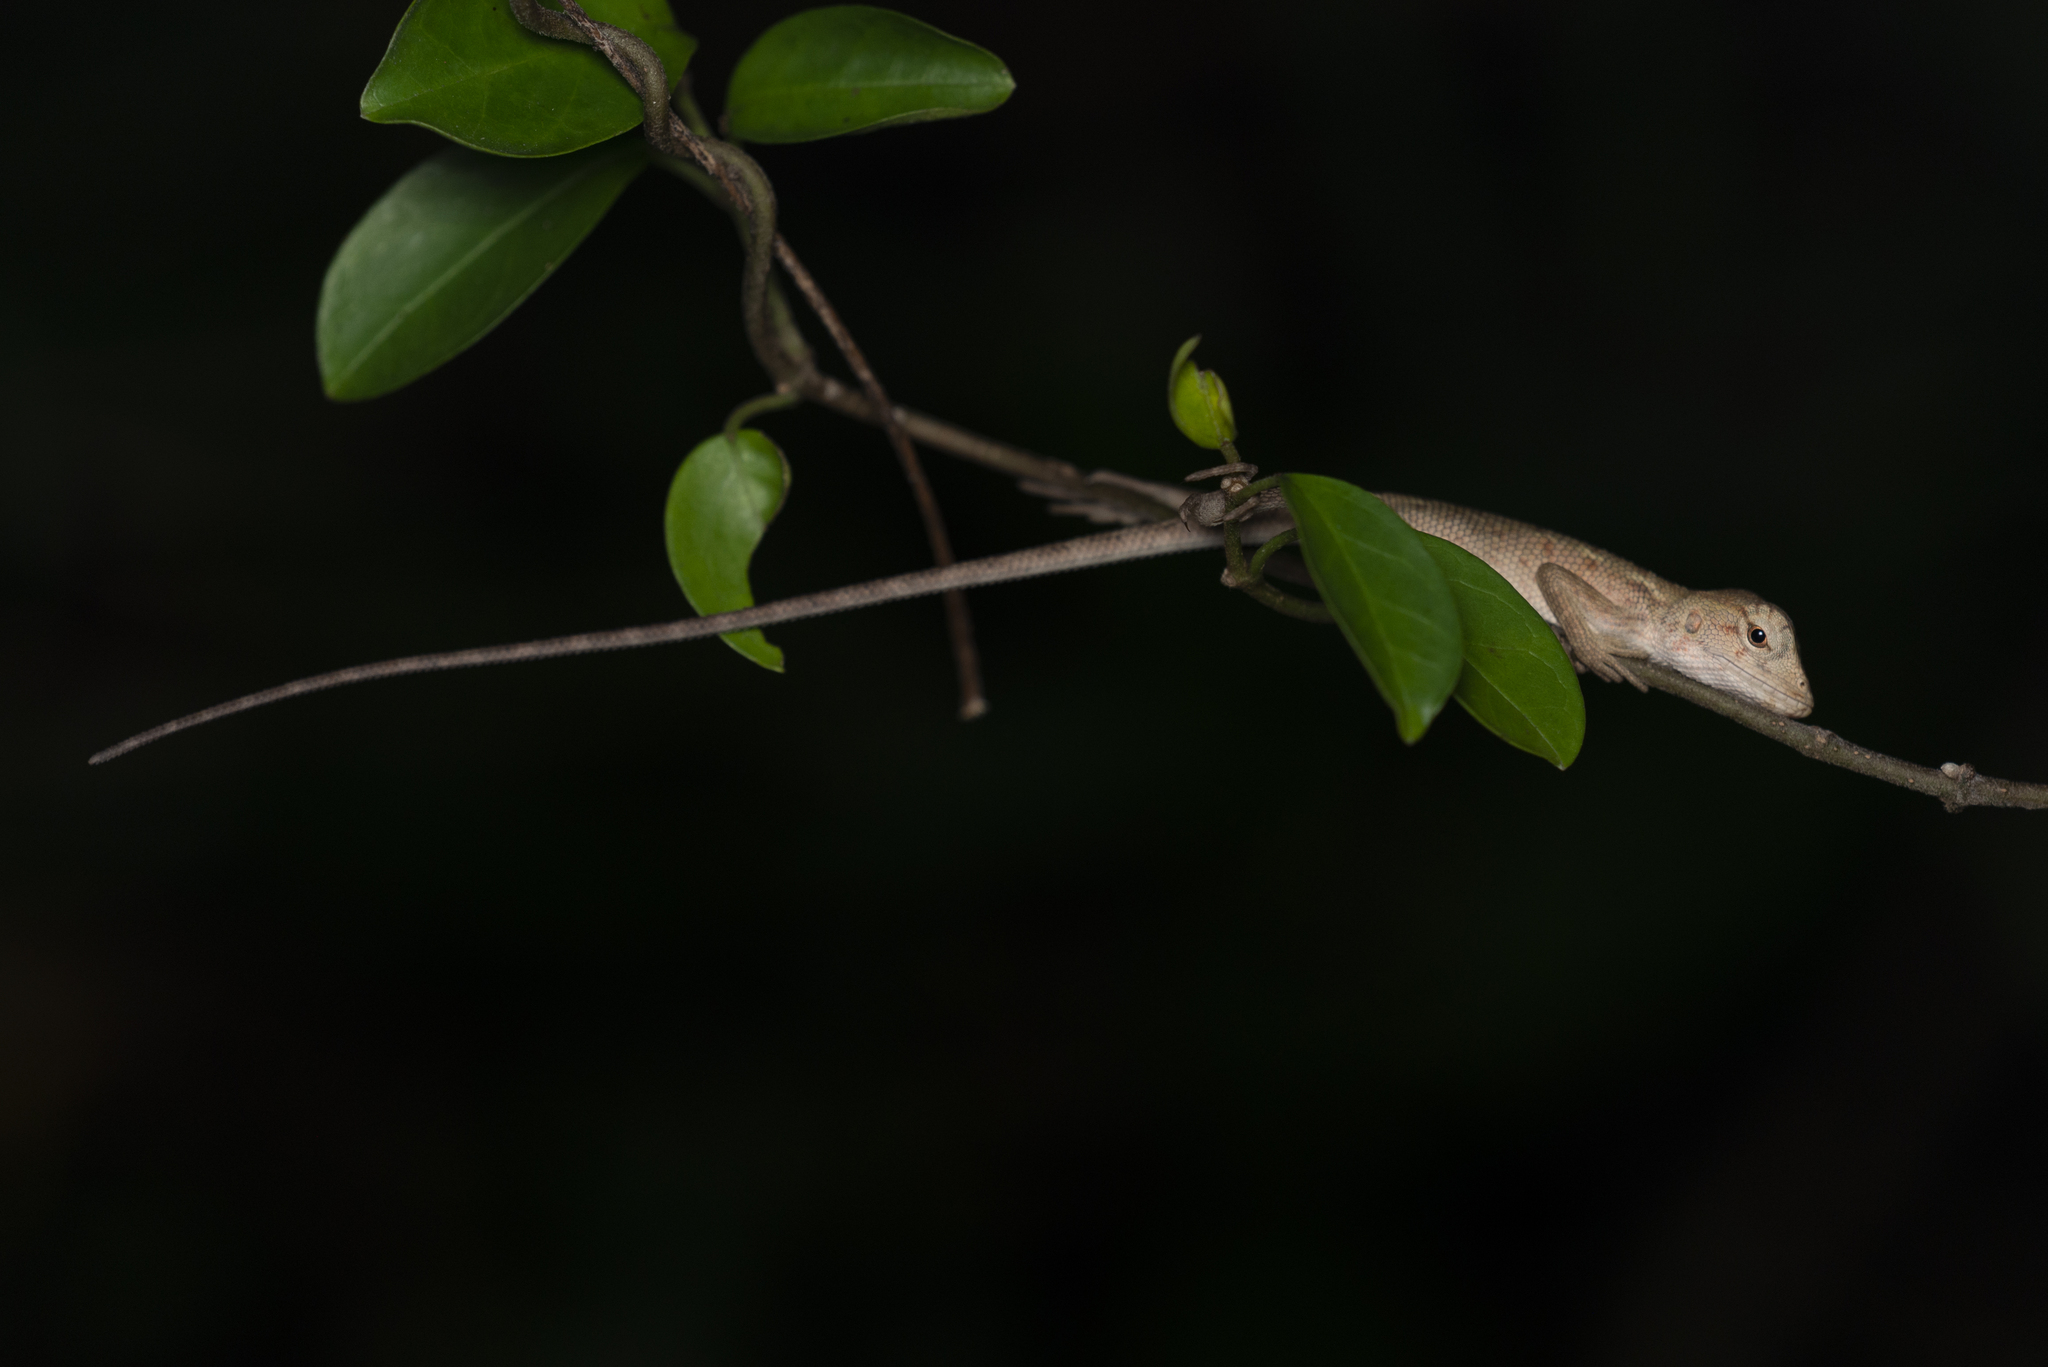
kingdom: Animalia
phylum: Chordata
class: Squamata
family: Agamidae
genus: Calotes
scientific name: Calotes versicolor
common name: Oriental garden lizard
